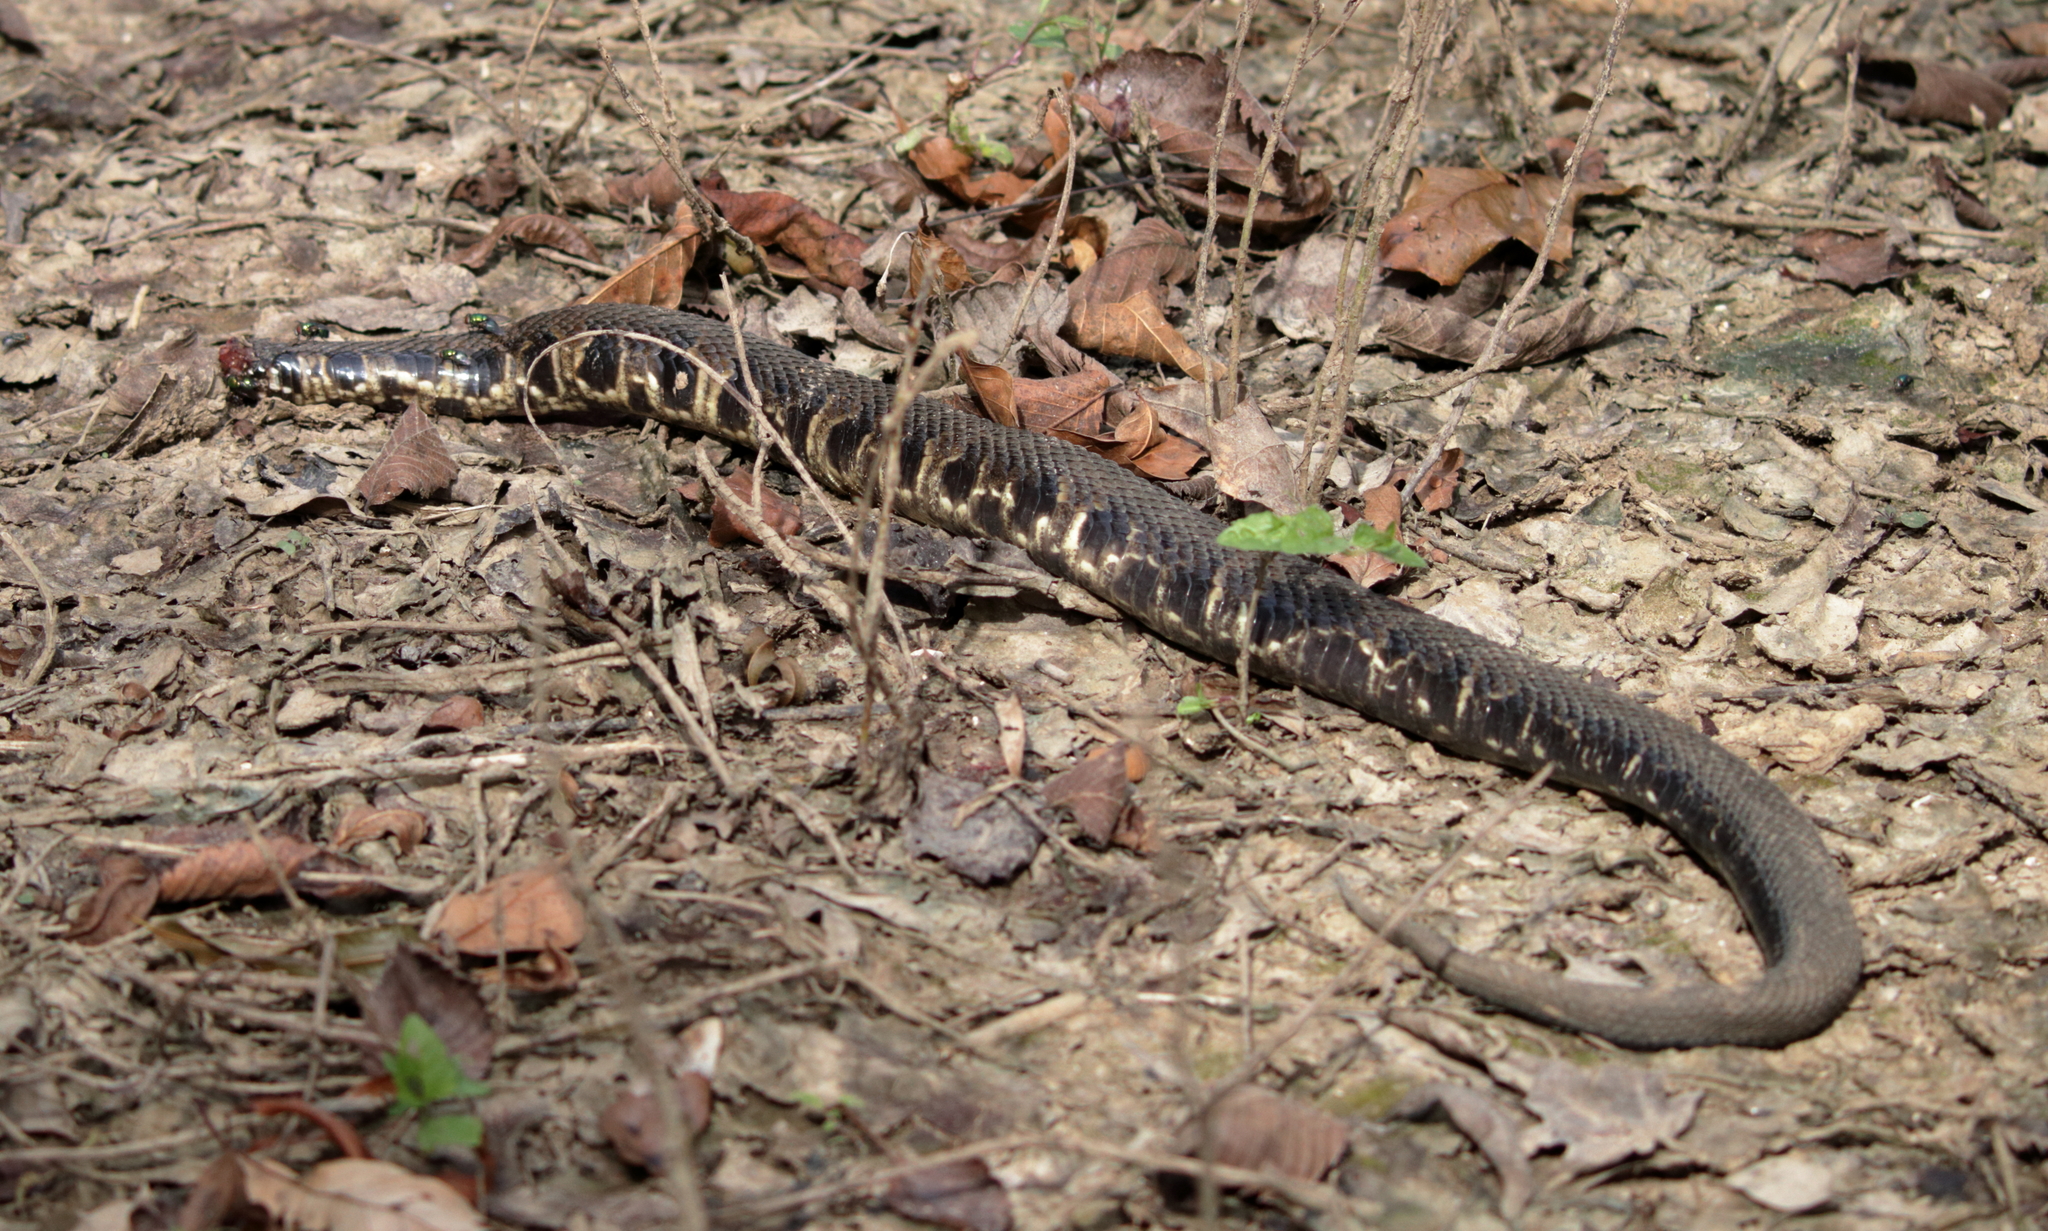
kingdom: Animalia
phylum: Chordata
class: Squamata
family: Viperidae
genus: Agkistrodon
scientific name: Agkistrodon piscivorus
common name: Cottonmouth
